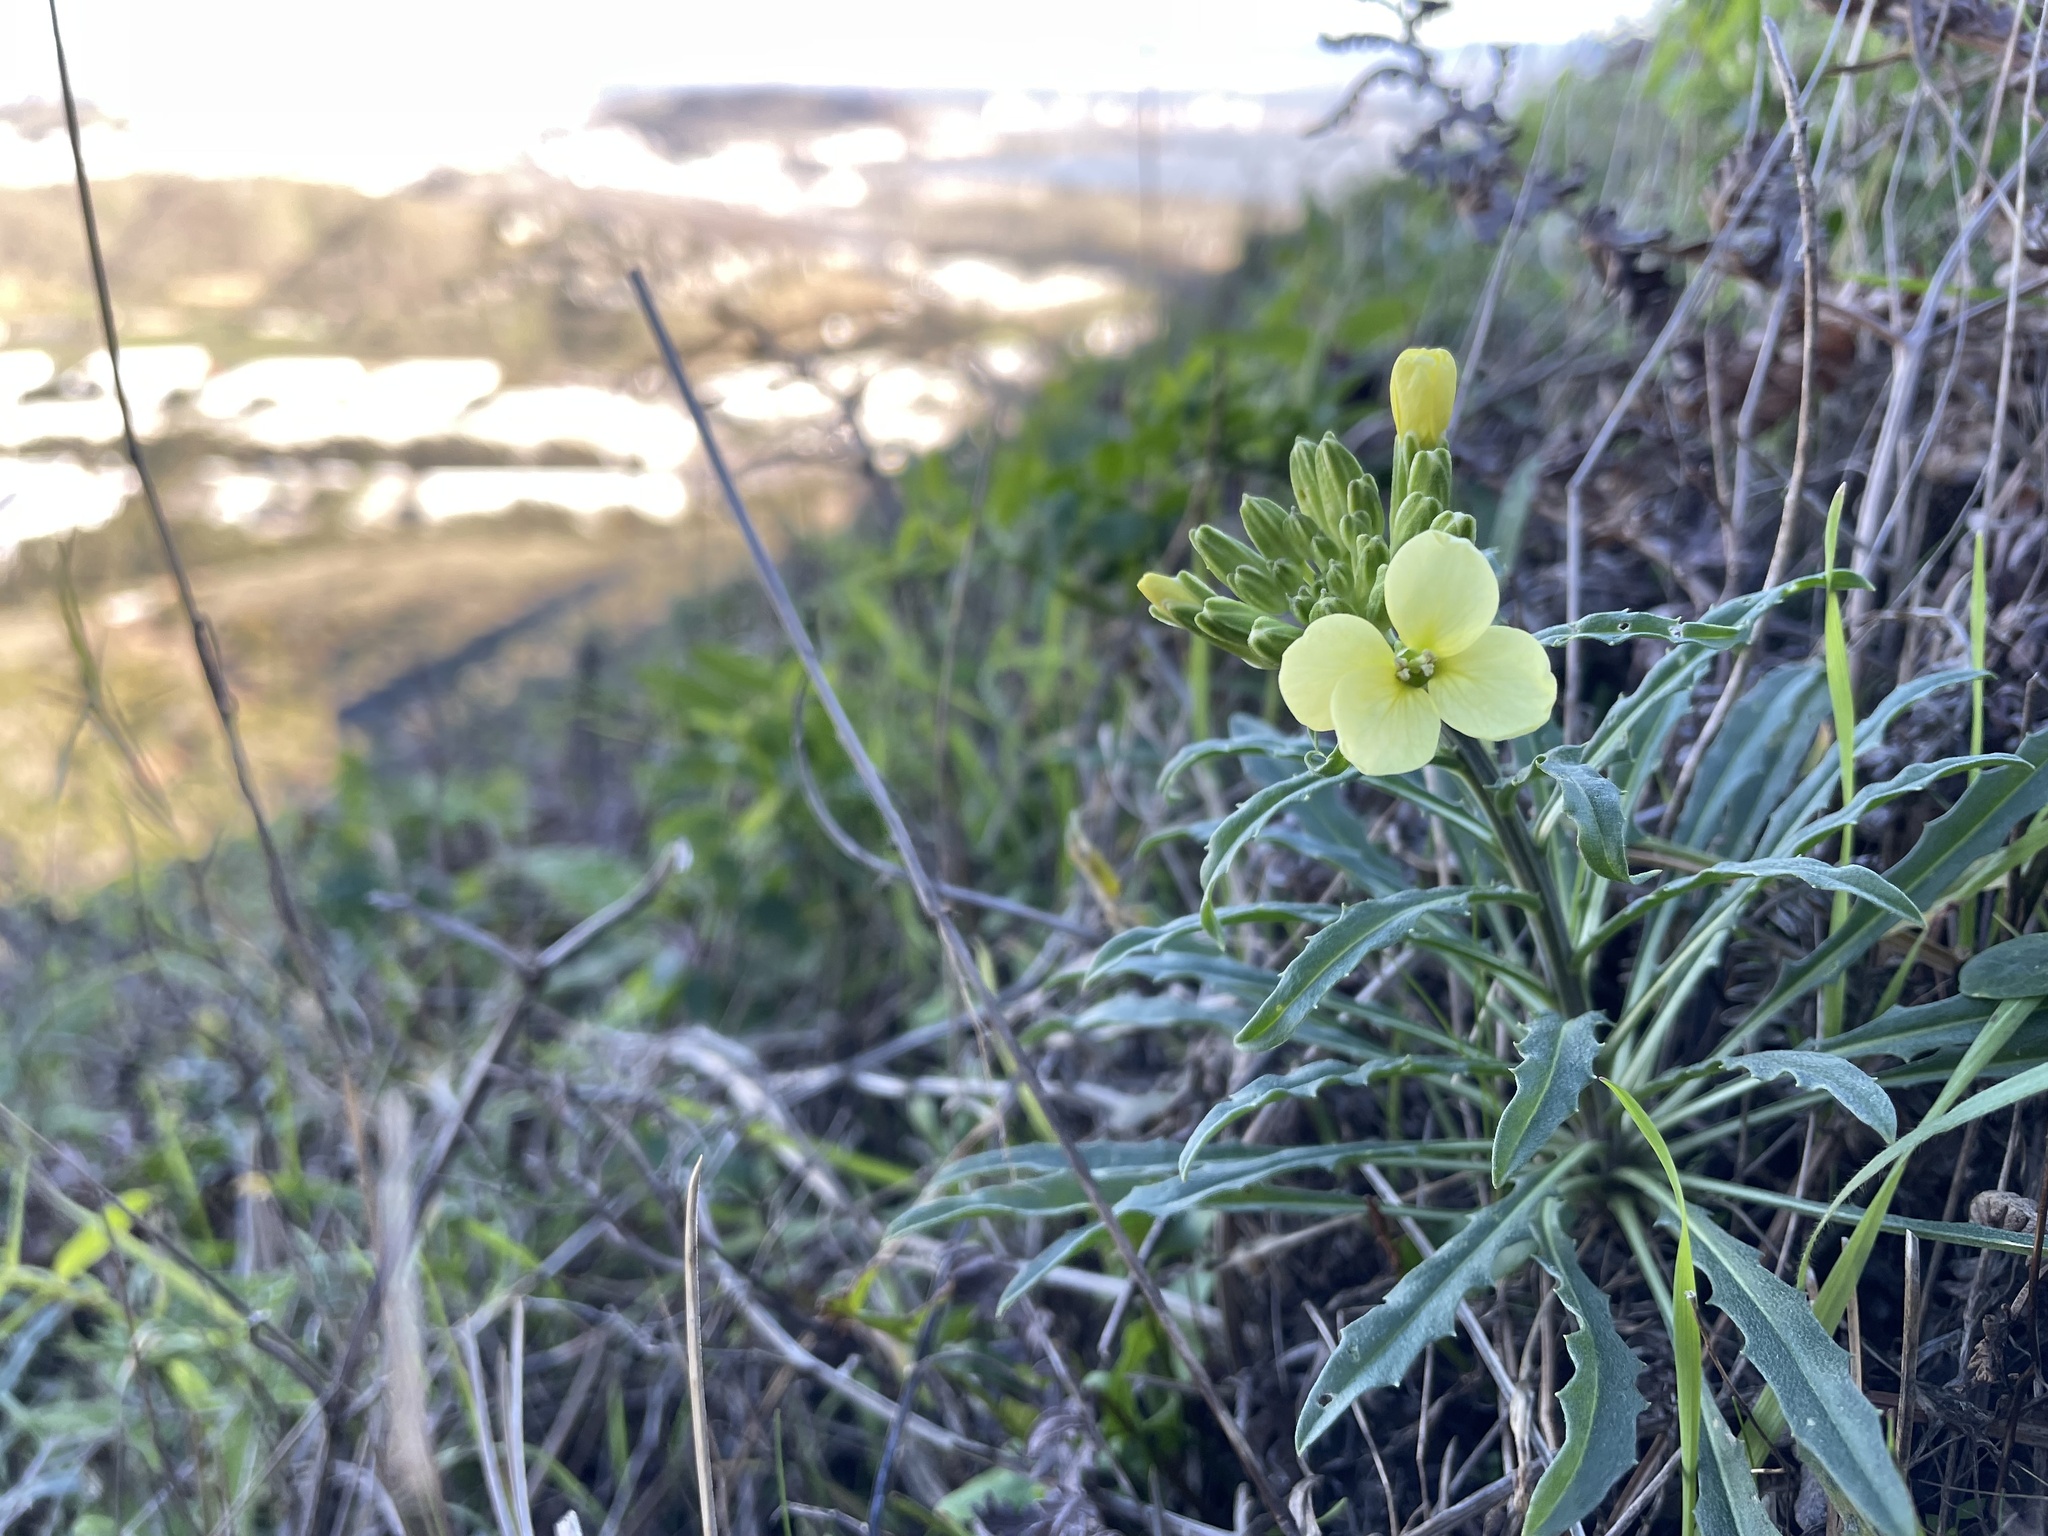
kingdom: Plantae
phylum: Tracheophyta
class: Magnoliopsida
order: Brassicales
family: Brassicaceae
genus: Erysimum
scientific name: Erysimum franciscanum
